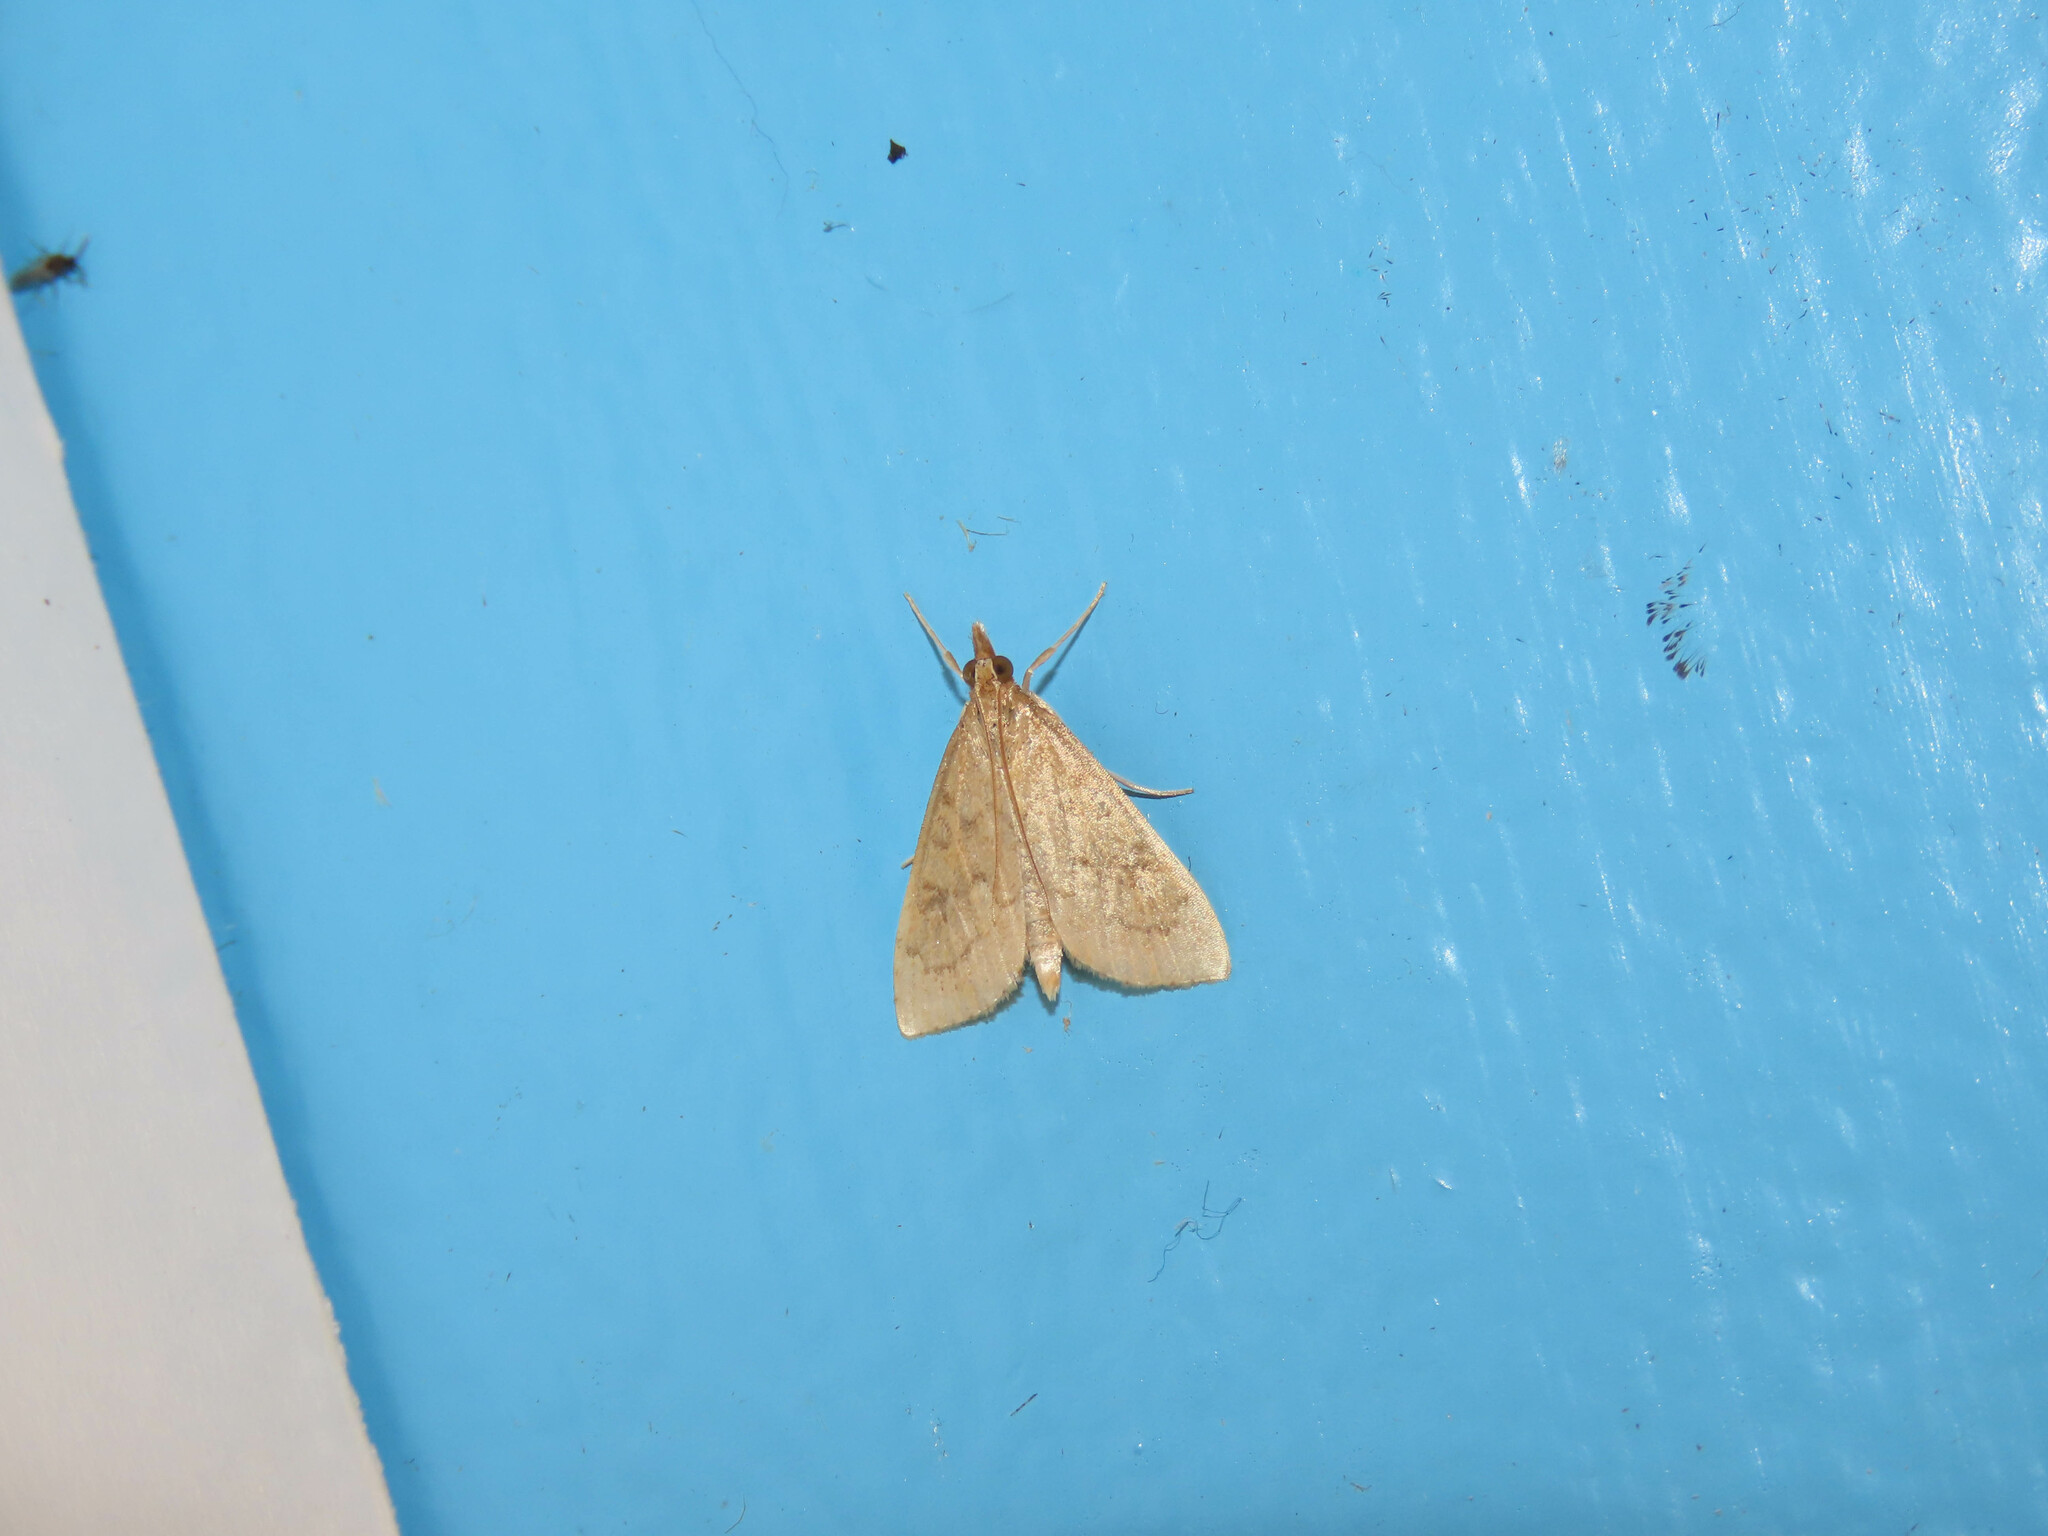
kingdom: Animalia
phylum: Arthropoda
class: Insecta
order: Lepidoptera
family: Crambidae
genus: Udea
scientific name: Udea rubigalis
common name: Celery leaftier moth
